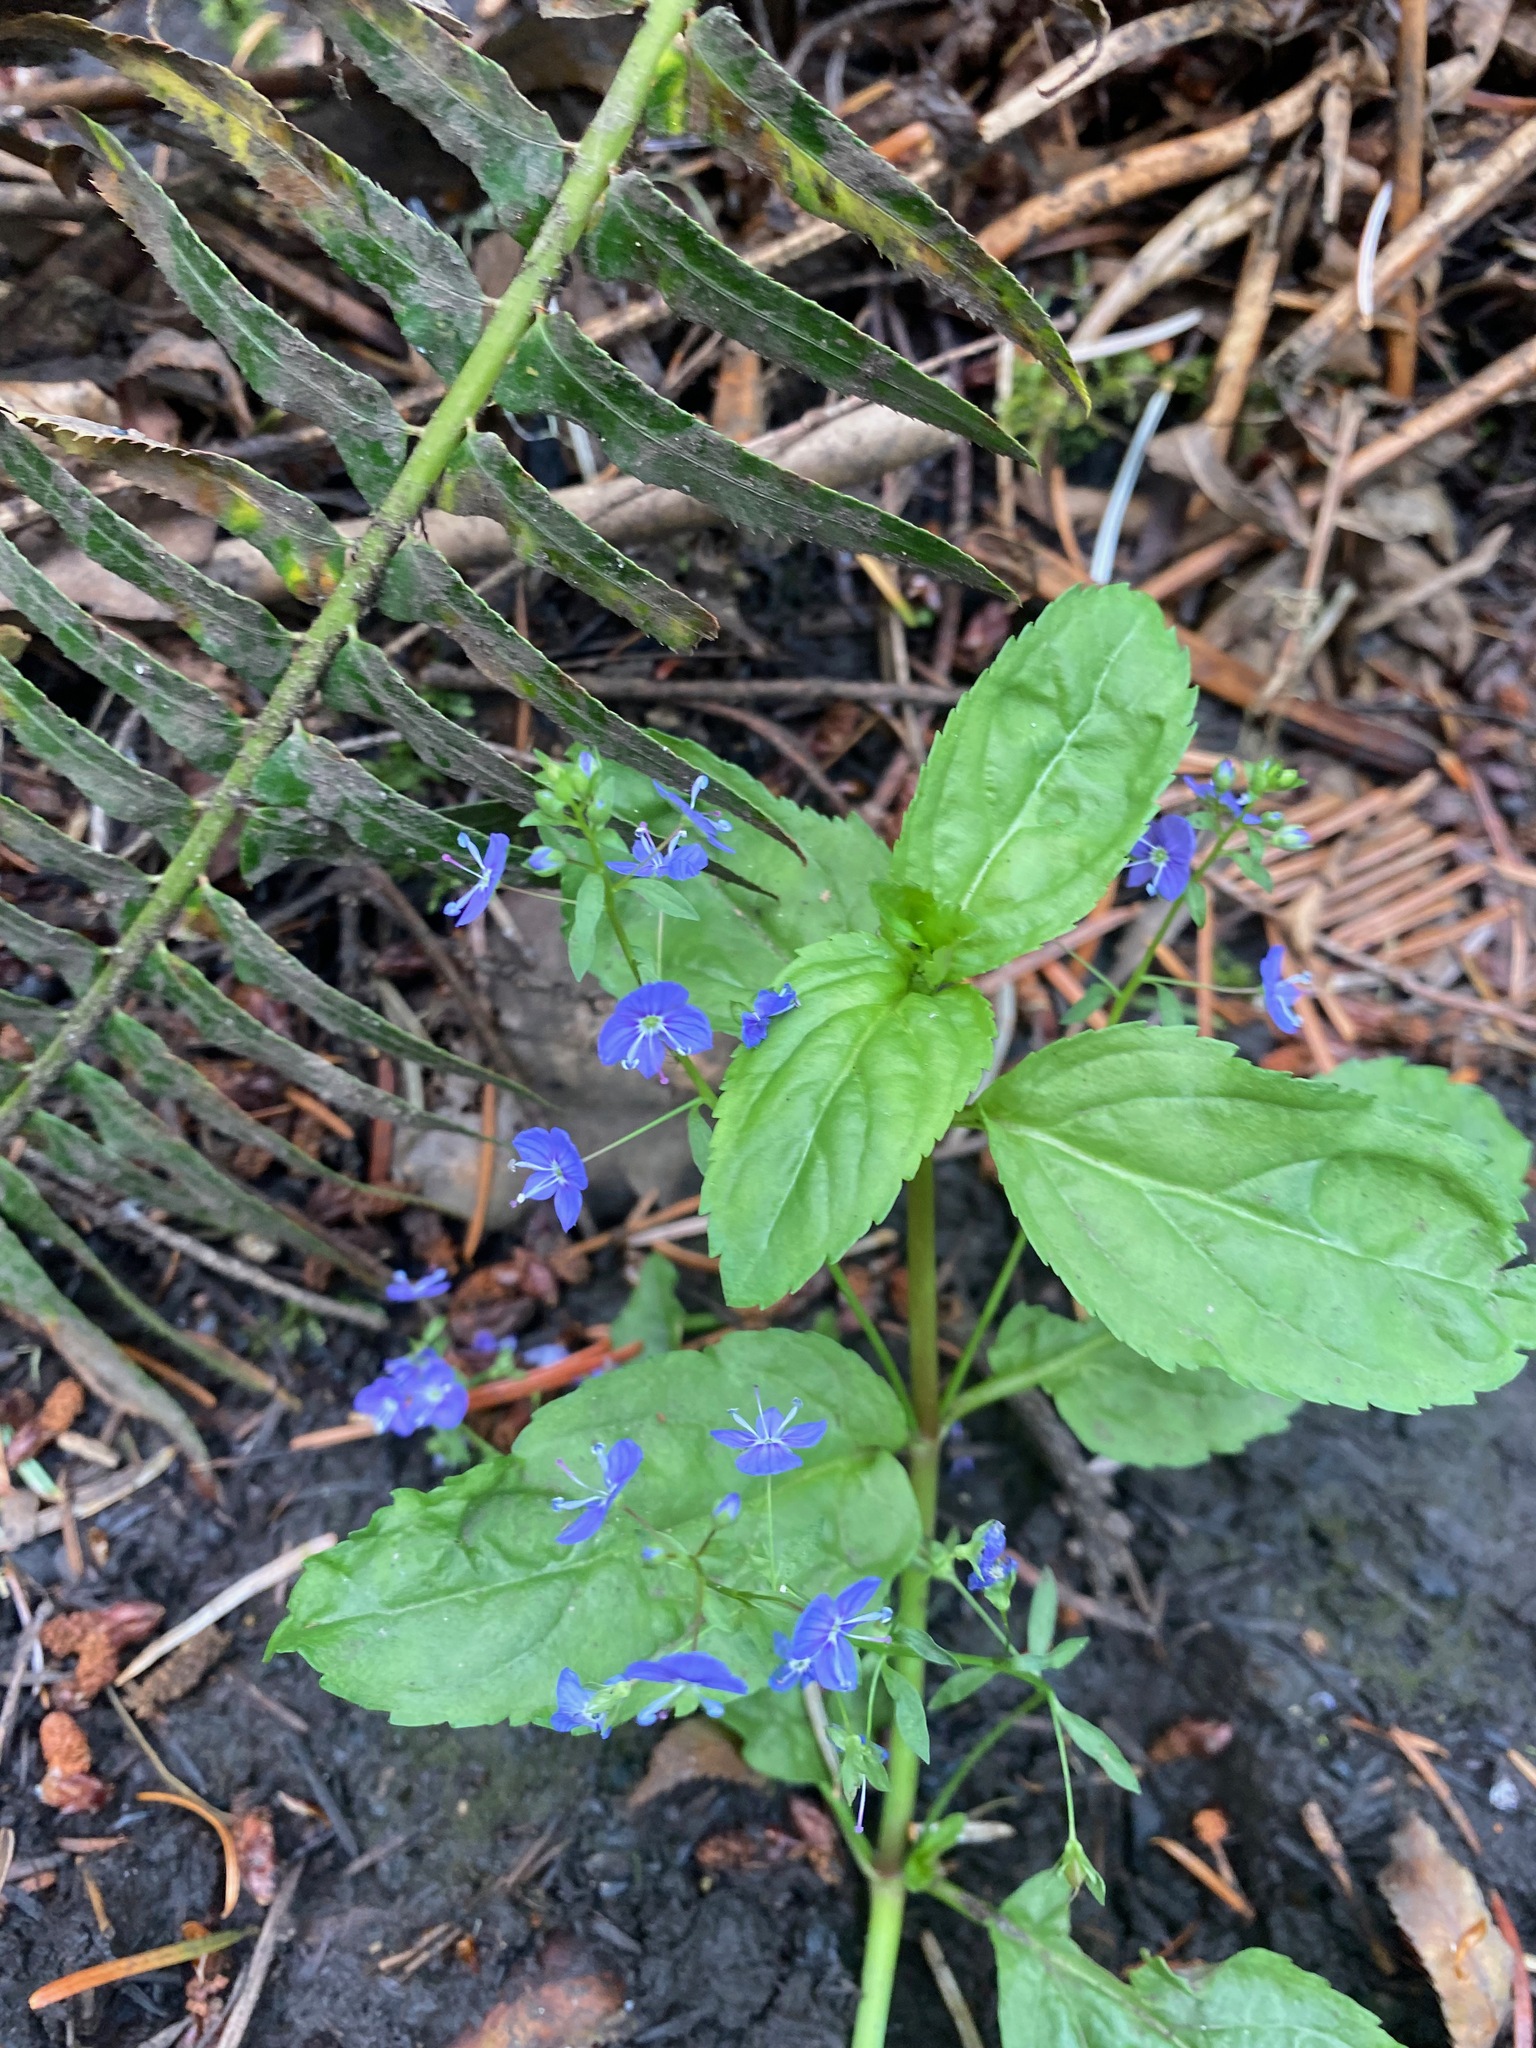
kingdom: Plantae
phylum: Tracheophyta
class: Magnoliopsida
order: Lamiales
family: Plantaginaceae
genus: Veronica
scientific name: Veronica americana
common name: American brooklime
